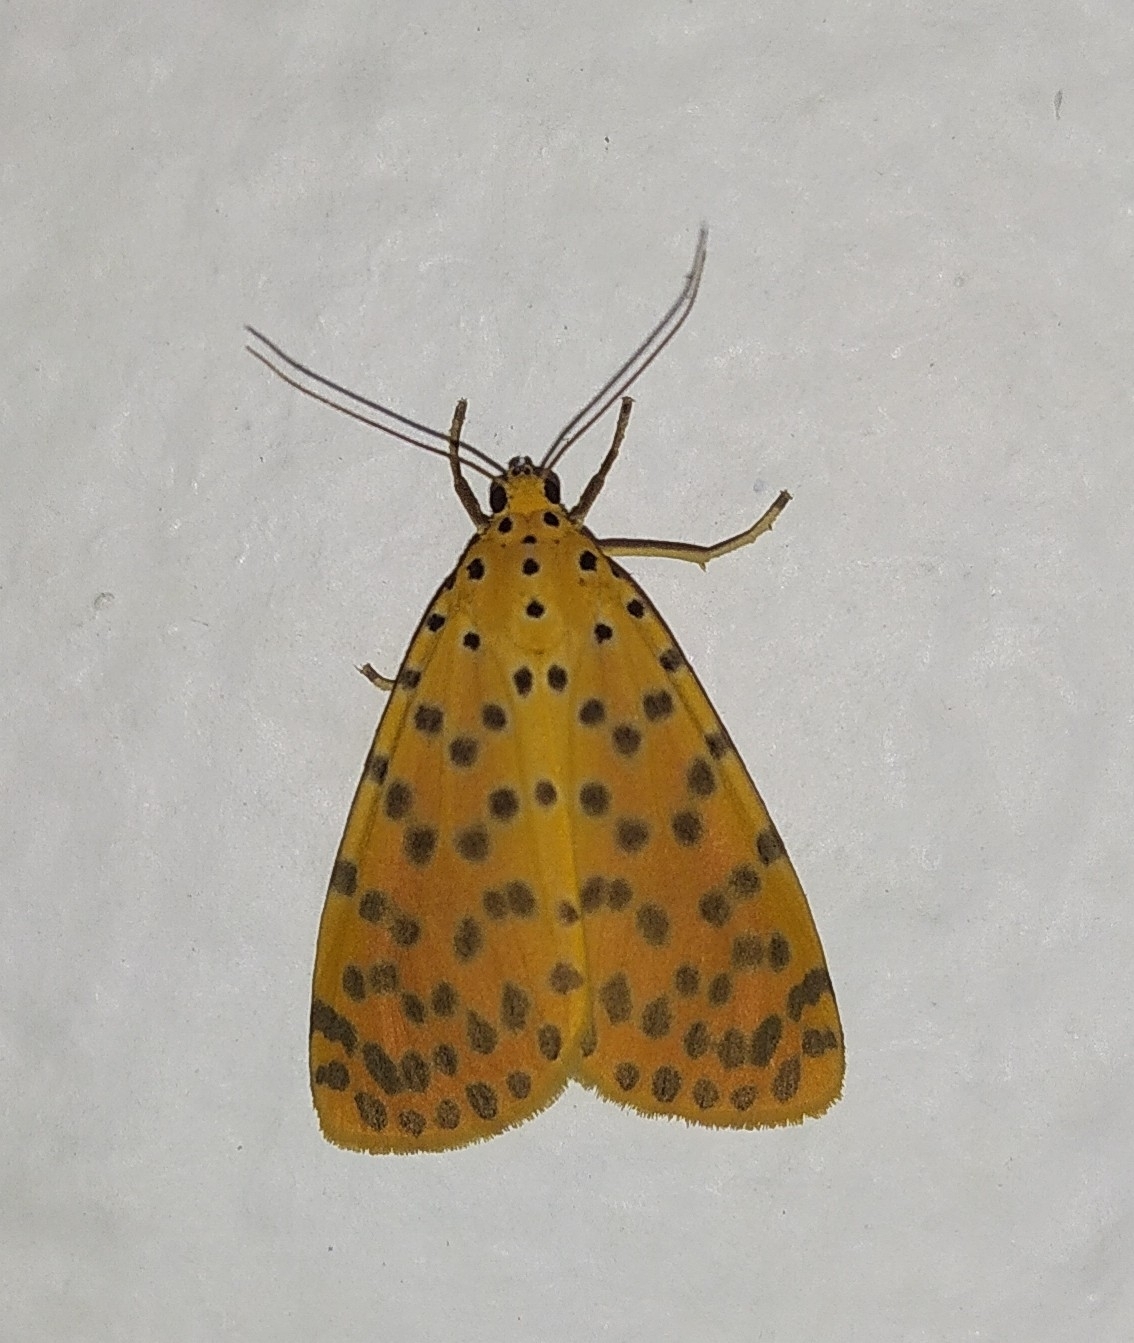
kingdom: Animalia
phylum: Arthropoda
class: Insecta
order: Lepidoptera
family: Erebidae
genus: Argina
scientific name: Argina astrea
